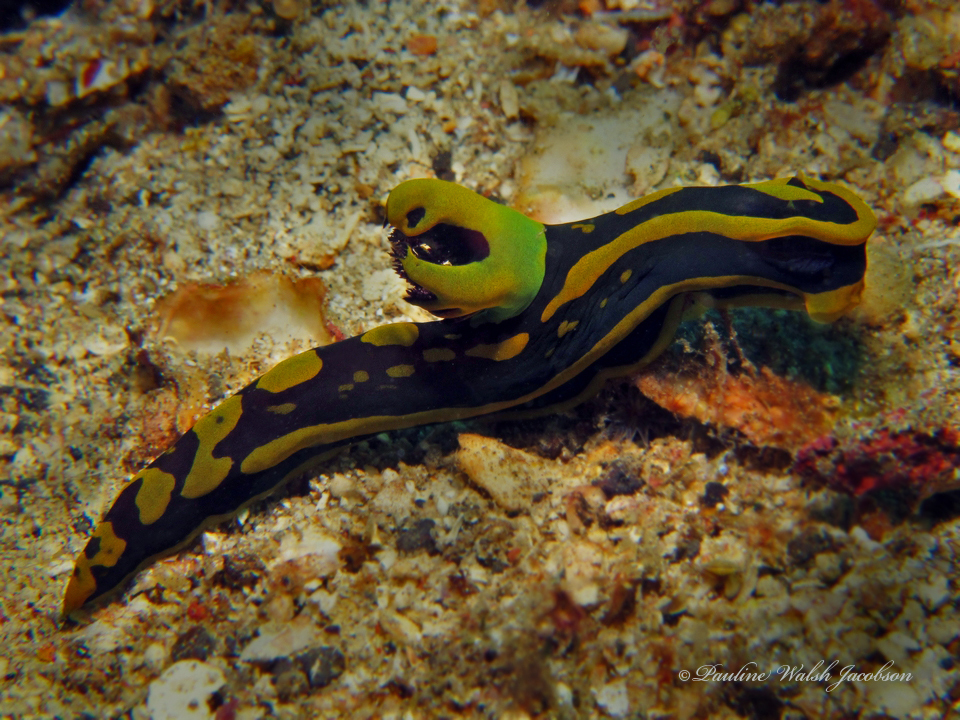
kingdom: Animalia
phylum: Mollusca
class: Gastropoda
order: Nudibranchia
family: Polyceridae
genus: Tambja
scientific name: Tambja gabrielae
